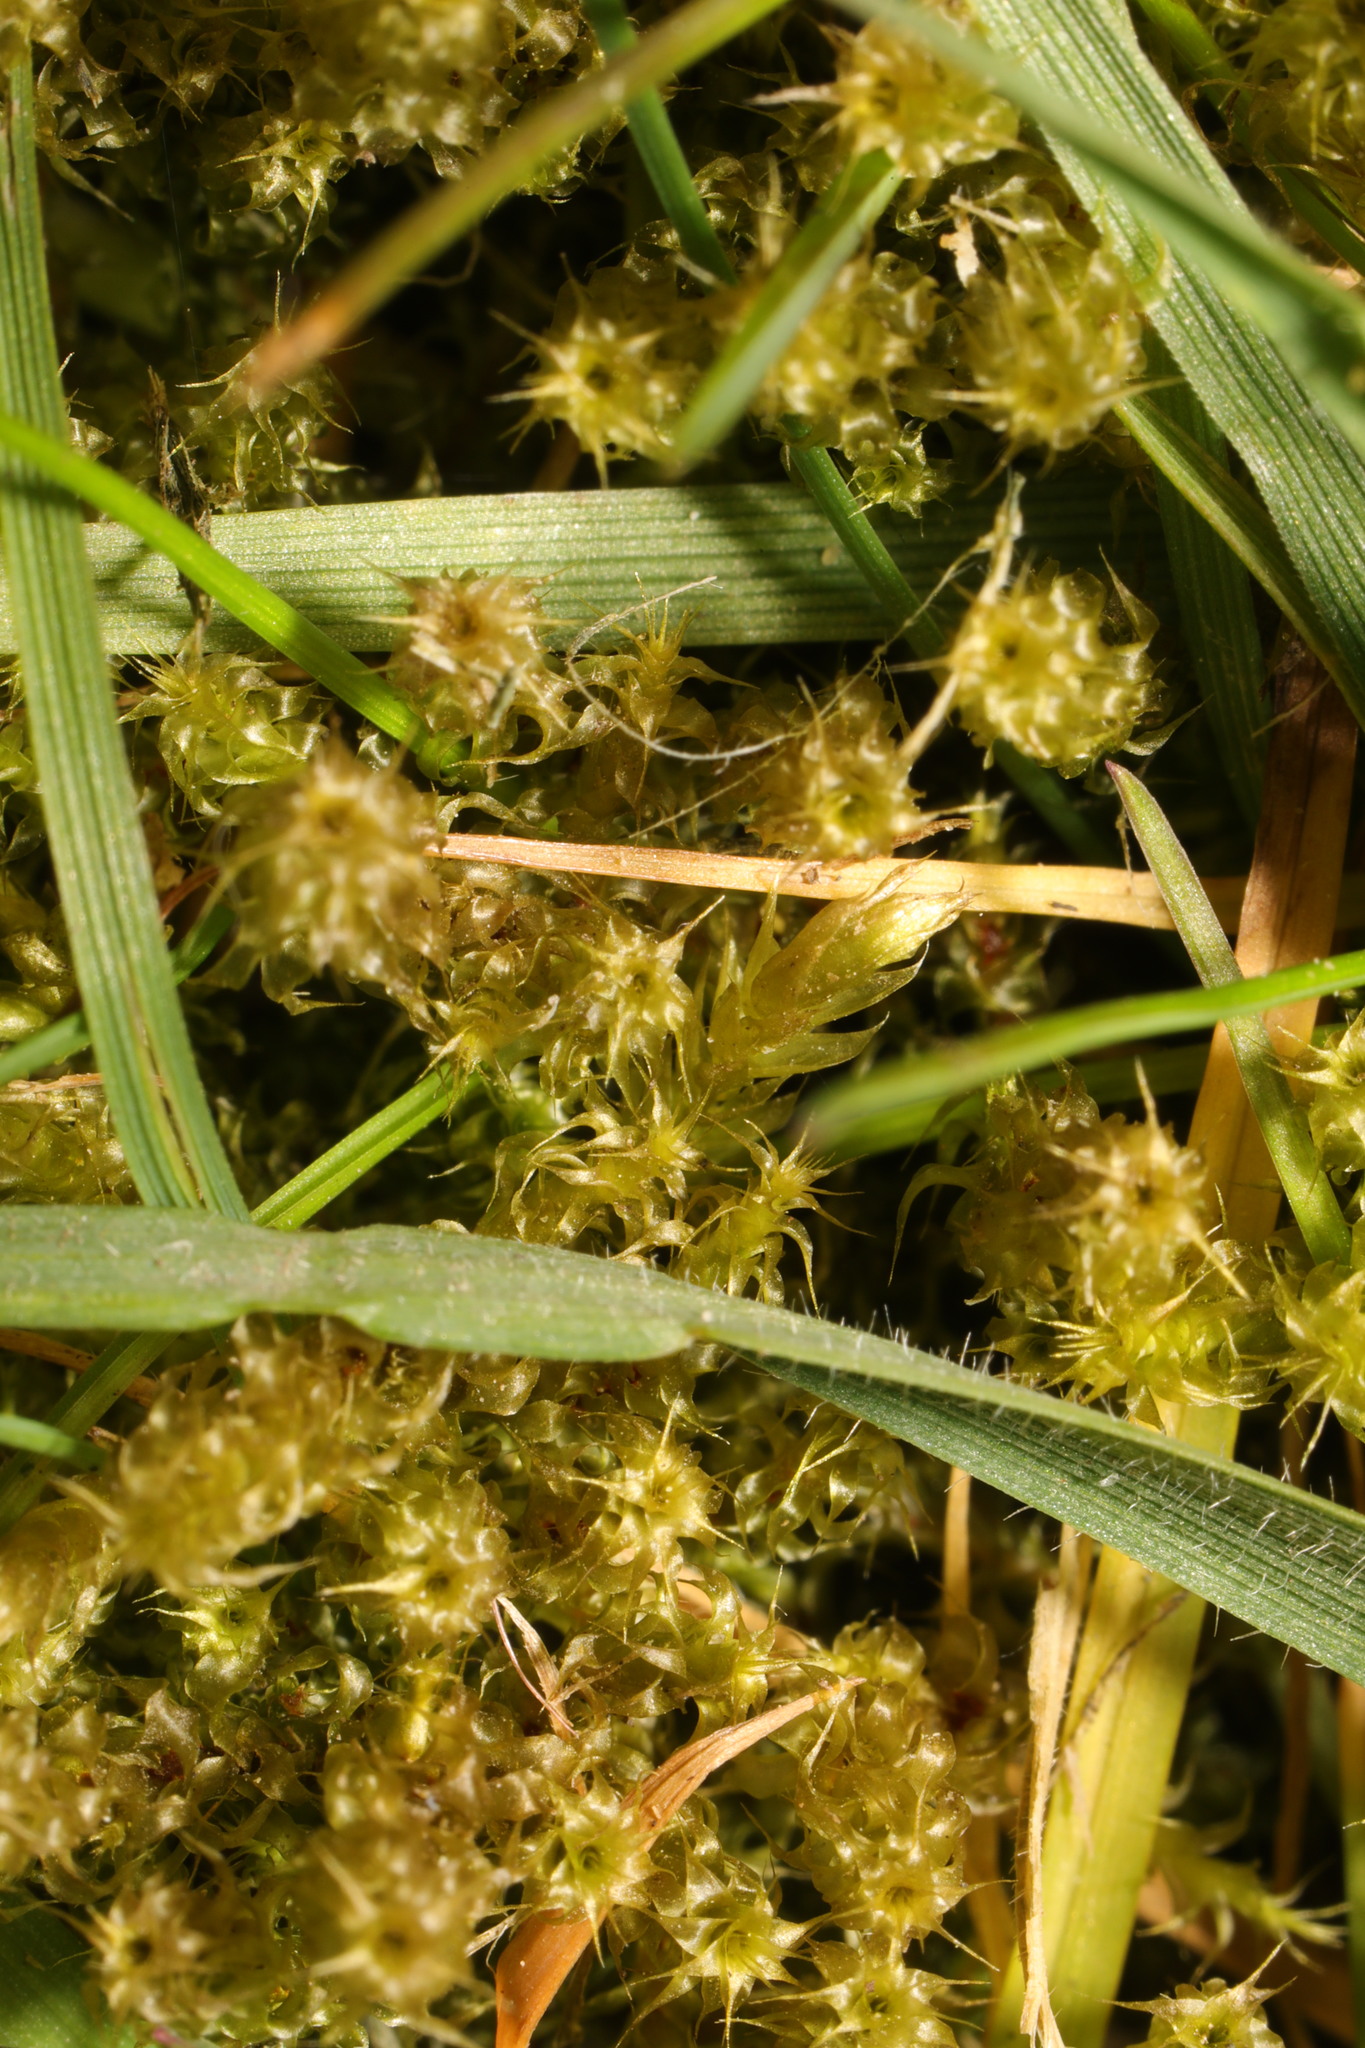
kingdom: Plantae
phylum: Bryophyta
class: Bryopsida
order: Hypnales
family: Hylocomiaceae
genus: Rhytidiadelphus
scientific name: Rhytidiadelphus squarrosus
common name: Springy turf-moss
